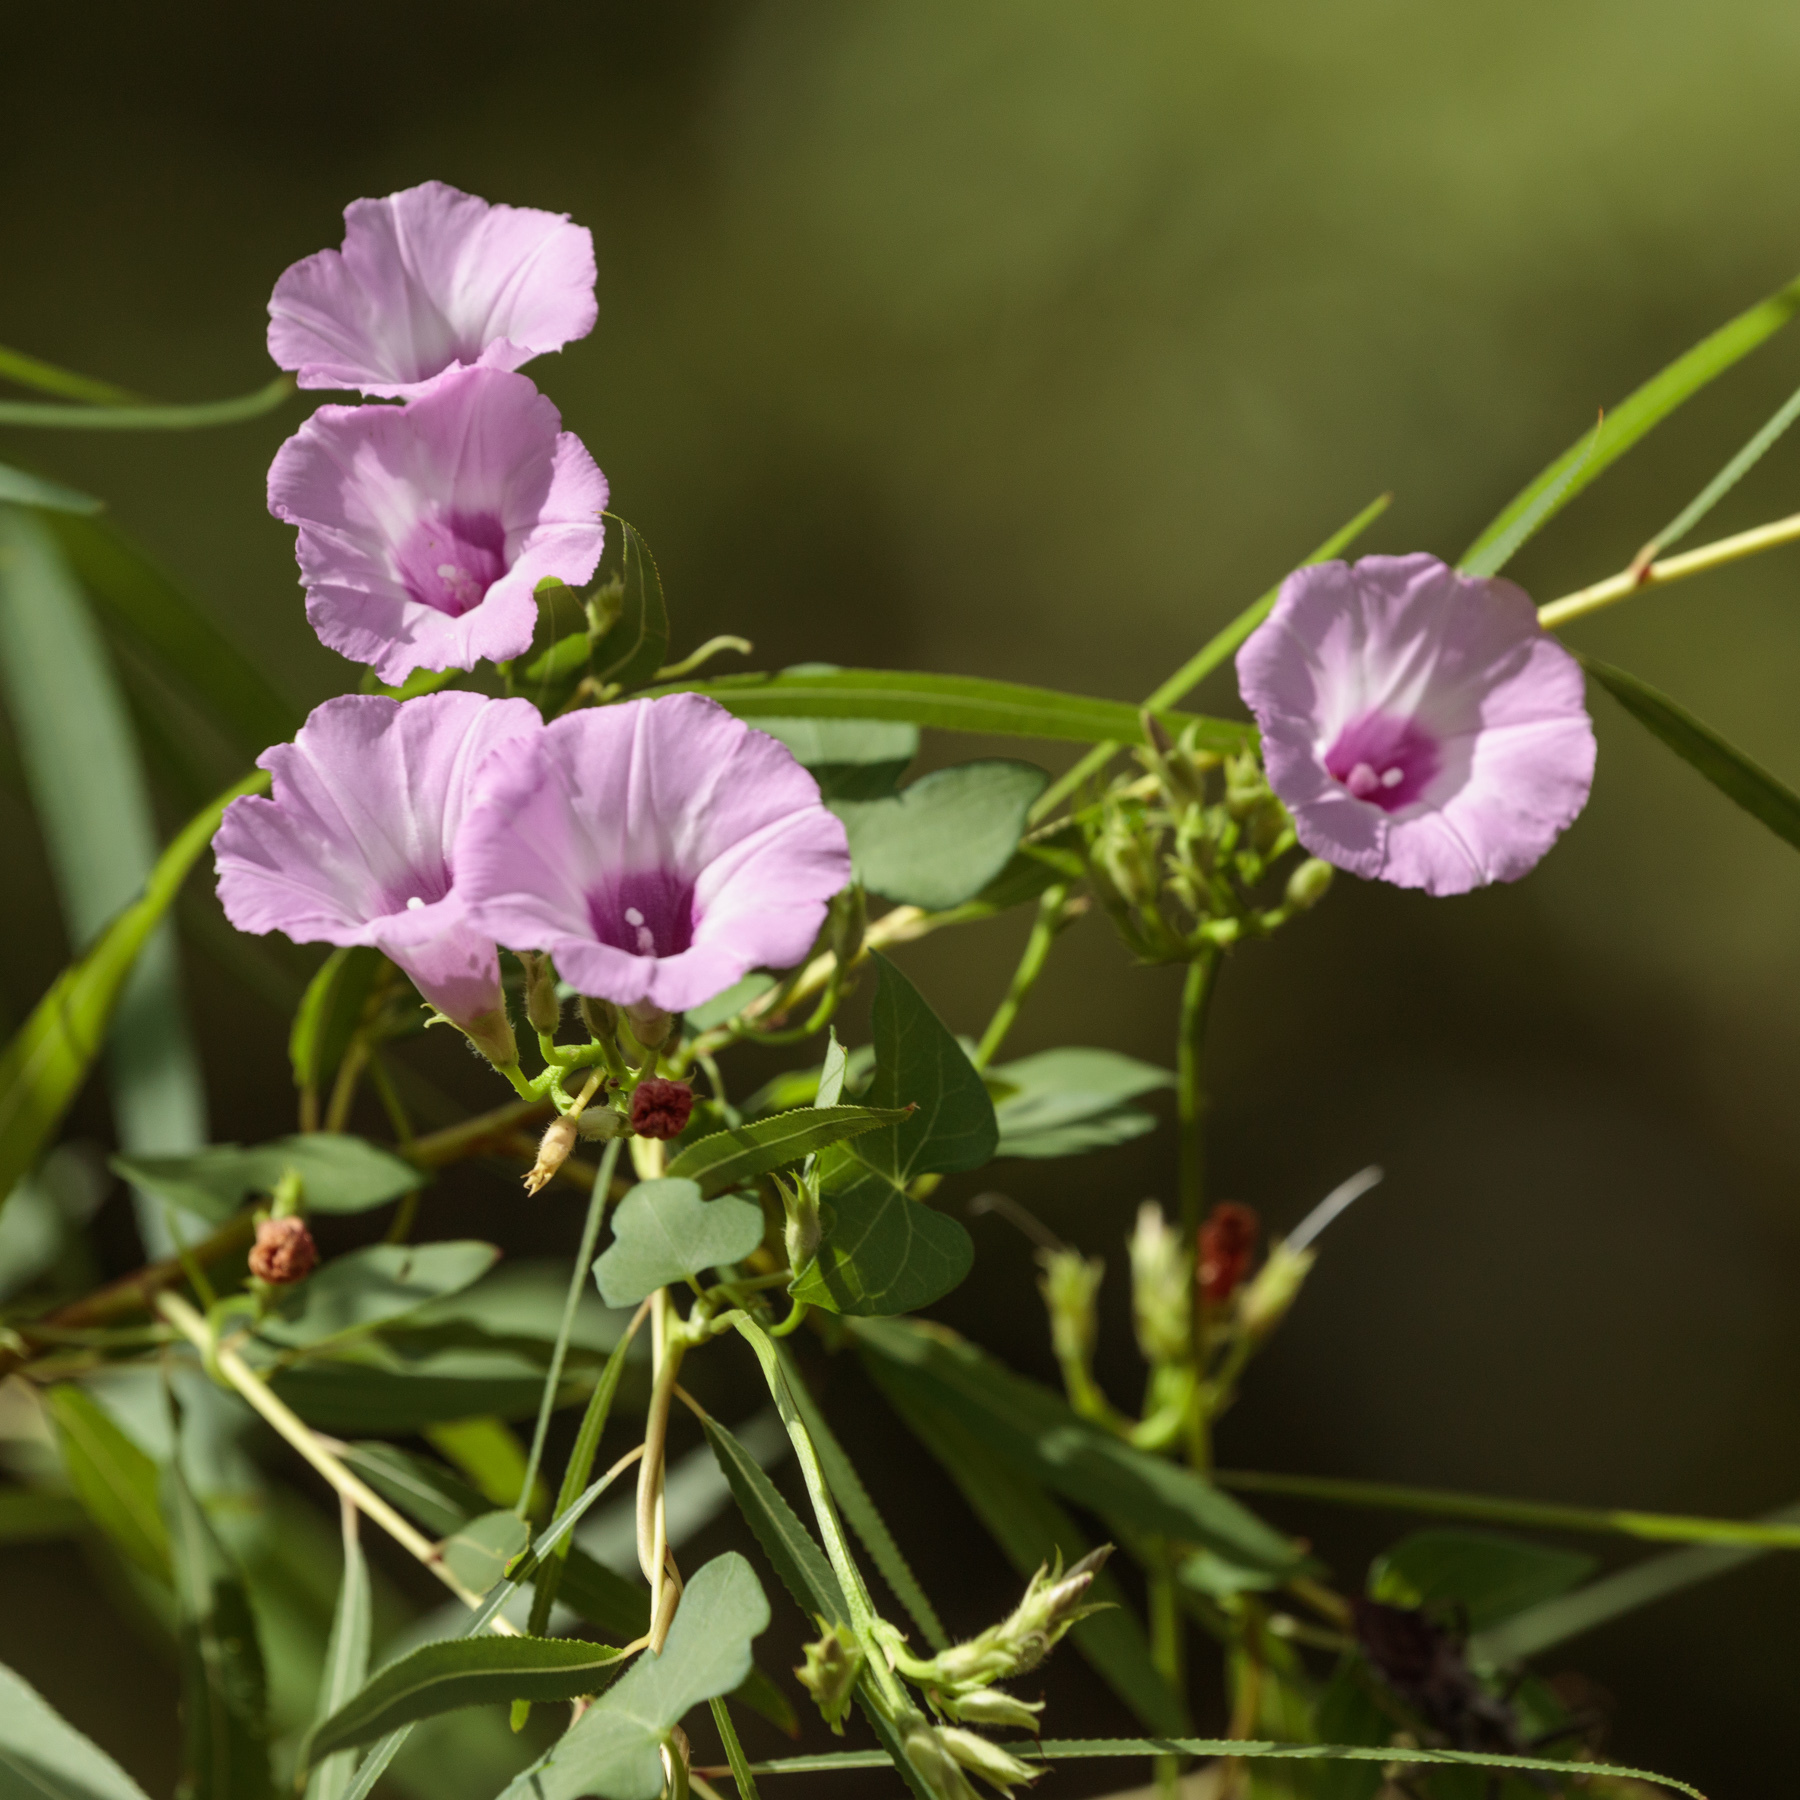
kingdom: Plantae
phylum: Tracheophyta
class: Magnoliopsida
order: Solanales
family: Convolvulaceae
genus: Ipomoea
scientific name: Ipomoea cordatotriloba
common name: Cotton morning glory
